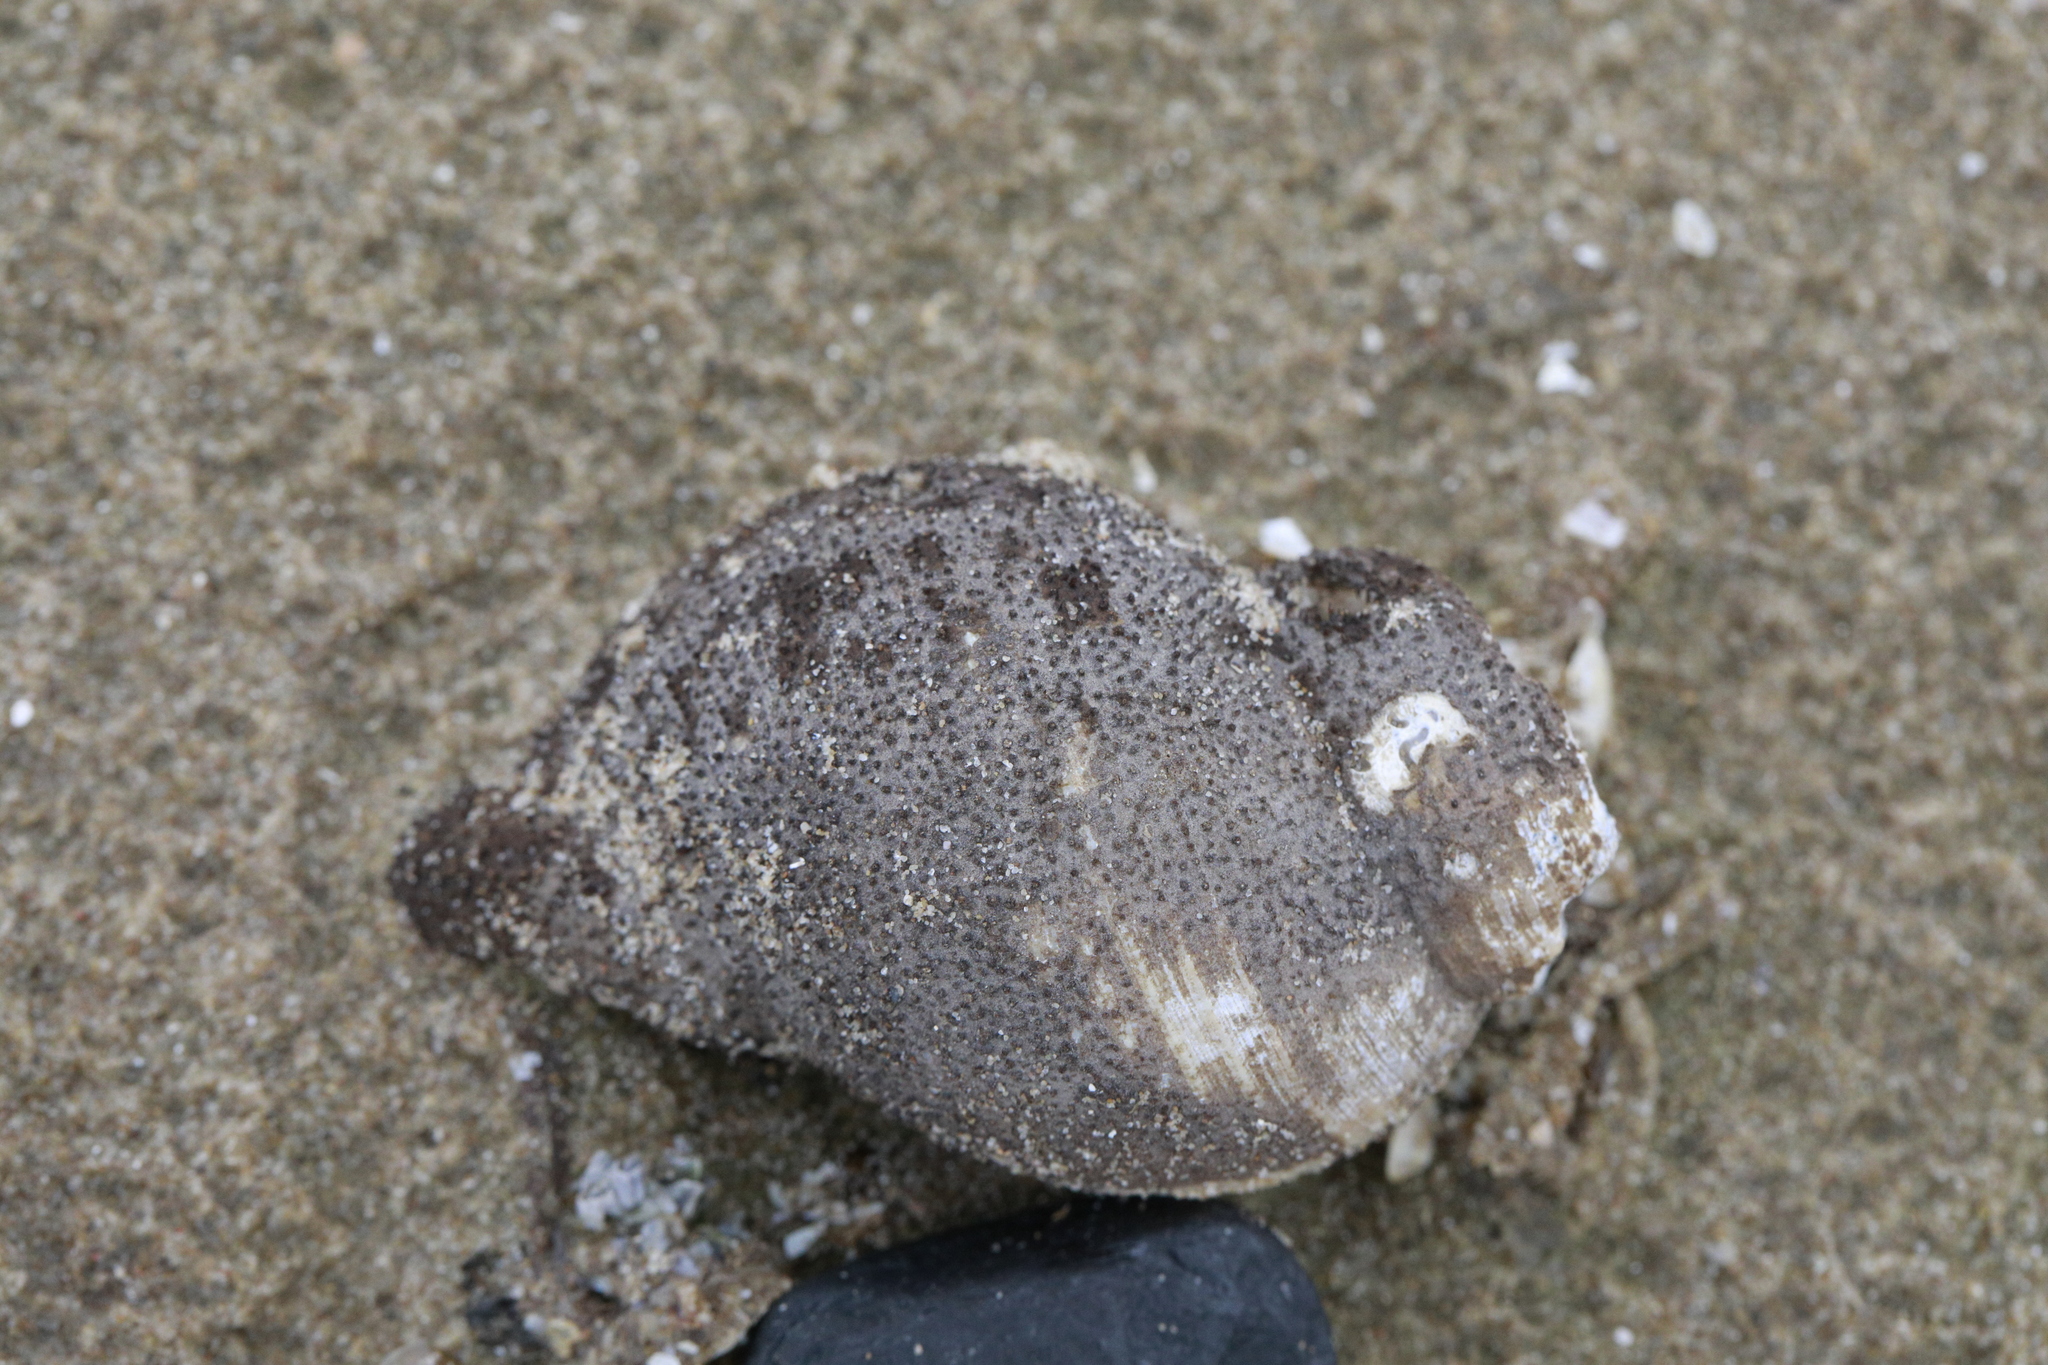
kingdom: Animalia
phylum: Cnidaria
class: Hydrozoa
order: Anthoathecata
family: Hydractiniidae
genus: Hydractinia
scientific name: Hydractinia echinata
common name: Rough hydroid
